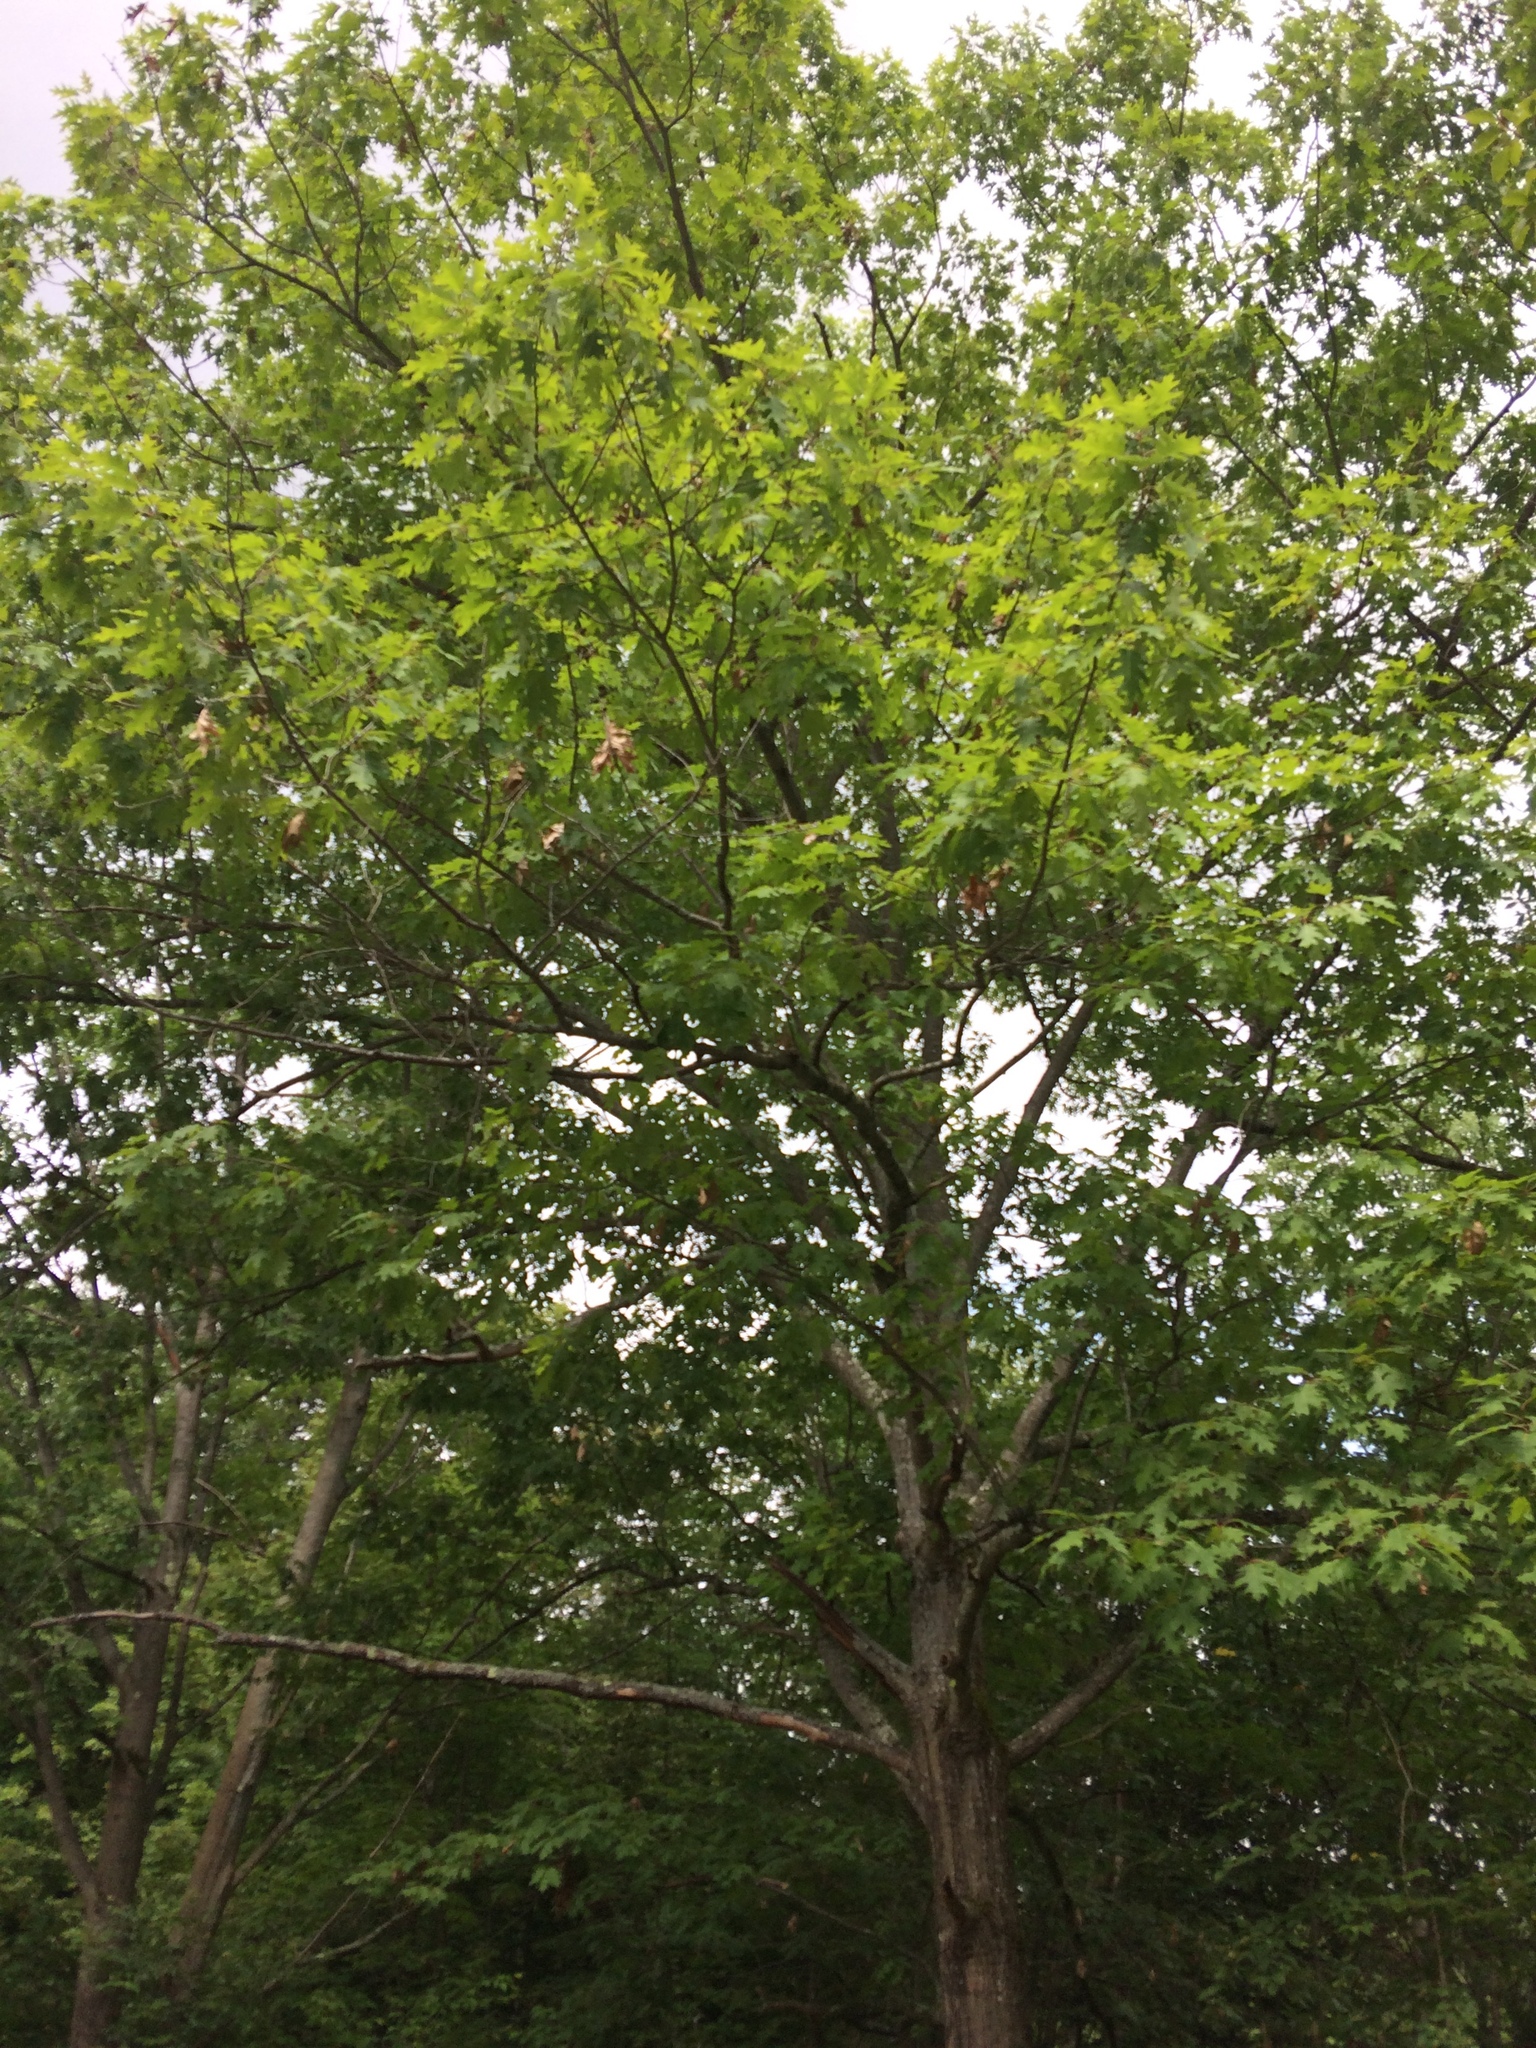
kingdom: Plantae
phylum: Tracheophyta
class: Magnoliopsida
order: Fagales
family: Fagaceae
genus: Quercus
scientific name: Quercus rubra
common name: Red oak
